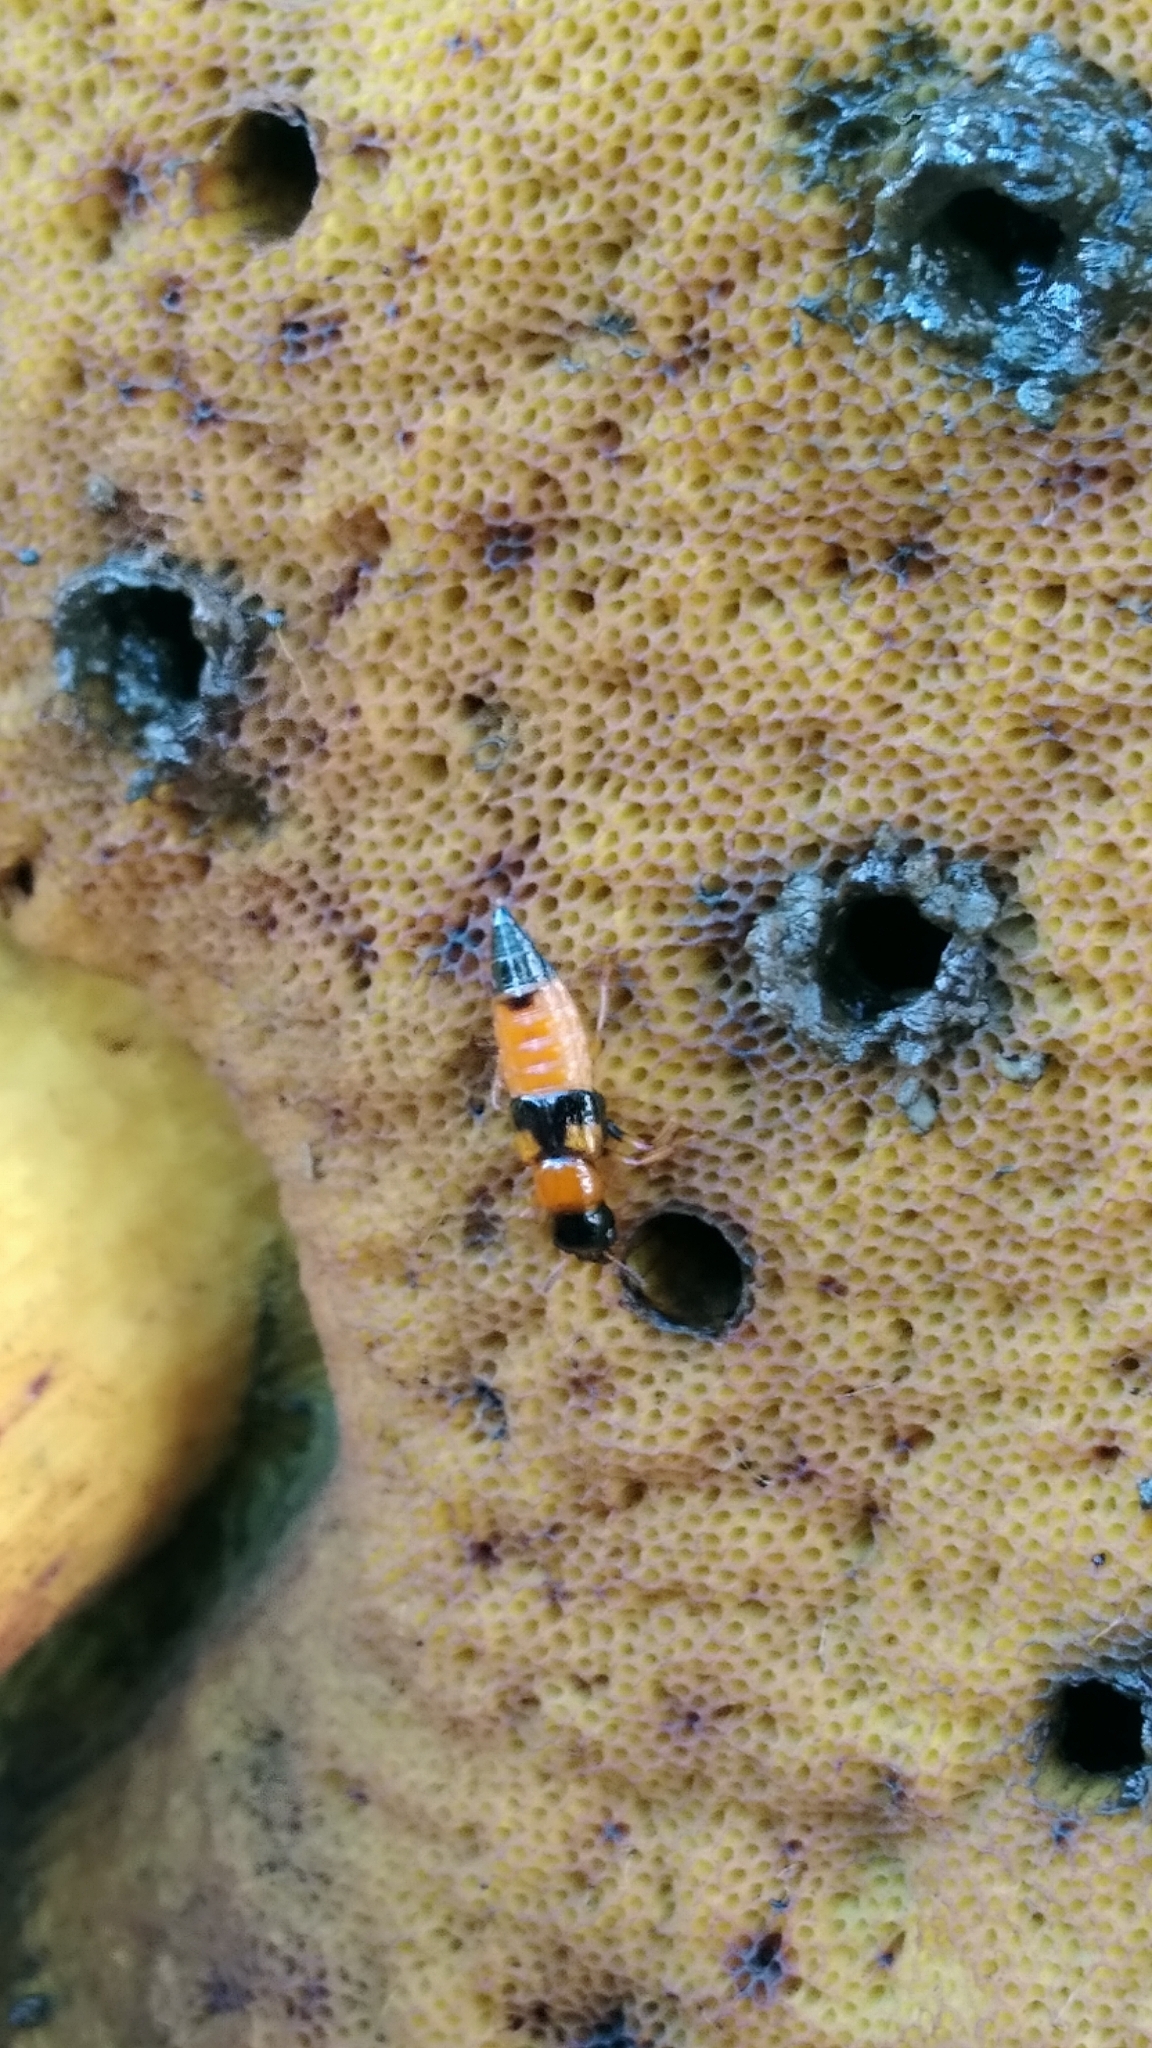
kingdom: Animalia
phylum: Arthropoda
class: Insecta
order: Coleoptera
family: Staphylinidae
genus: Oxyporus
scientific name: Oxyporus rufus
